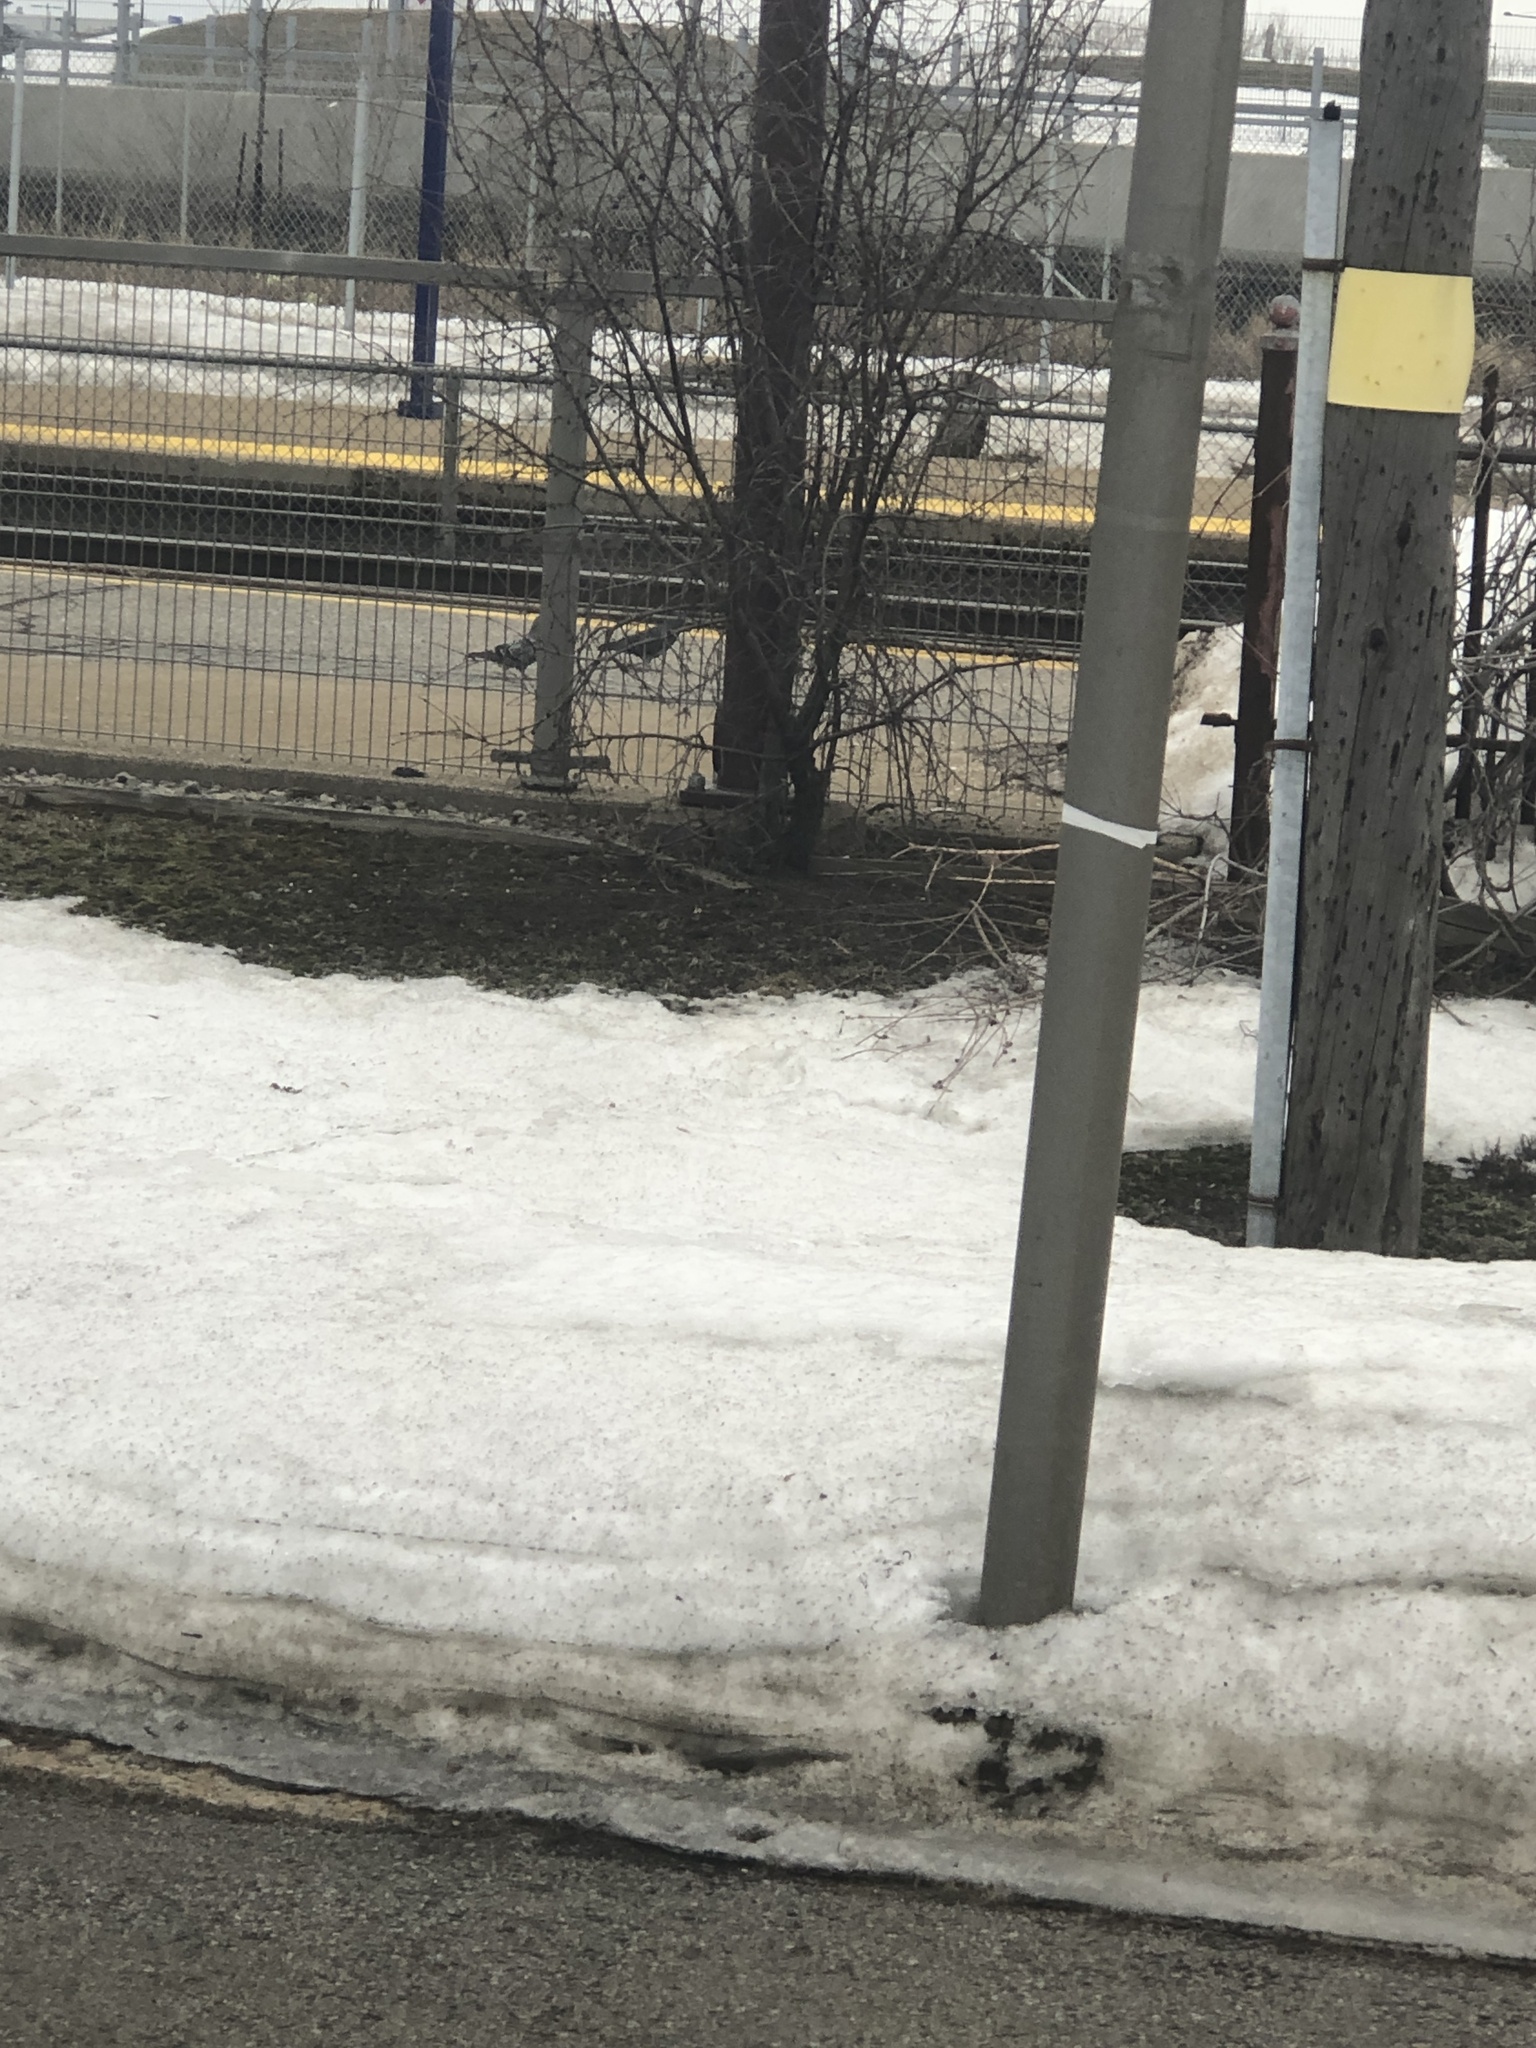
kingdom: Animalia
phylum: Chordata
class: Aves
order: Columbiformes
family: Columbidae
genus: Columba
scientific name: Columba livia
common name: Rock pigeon
